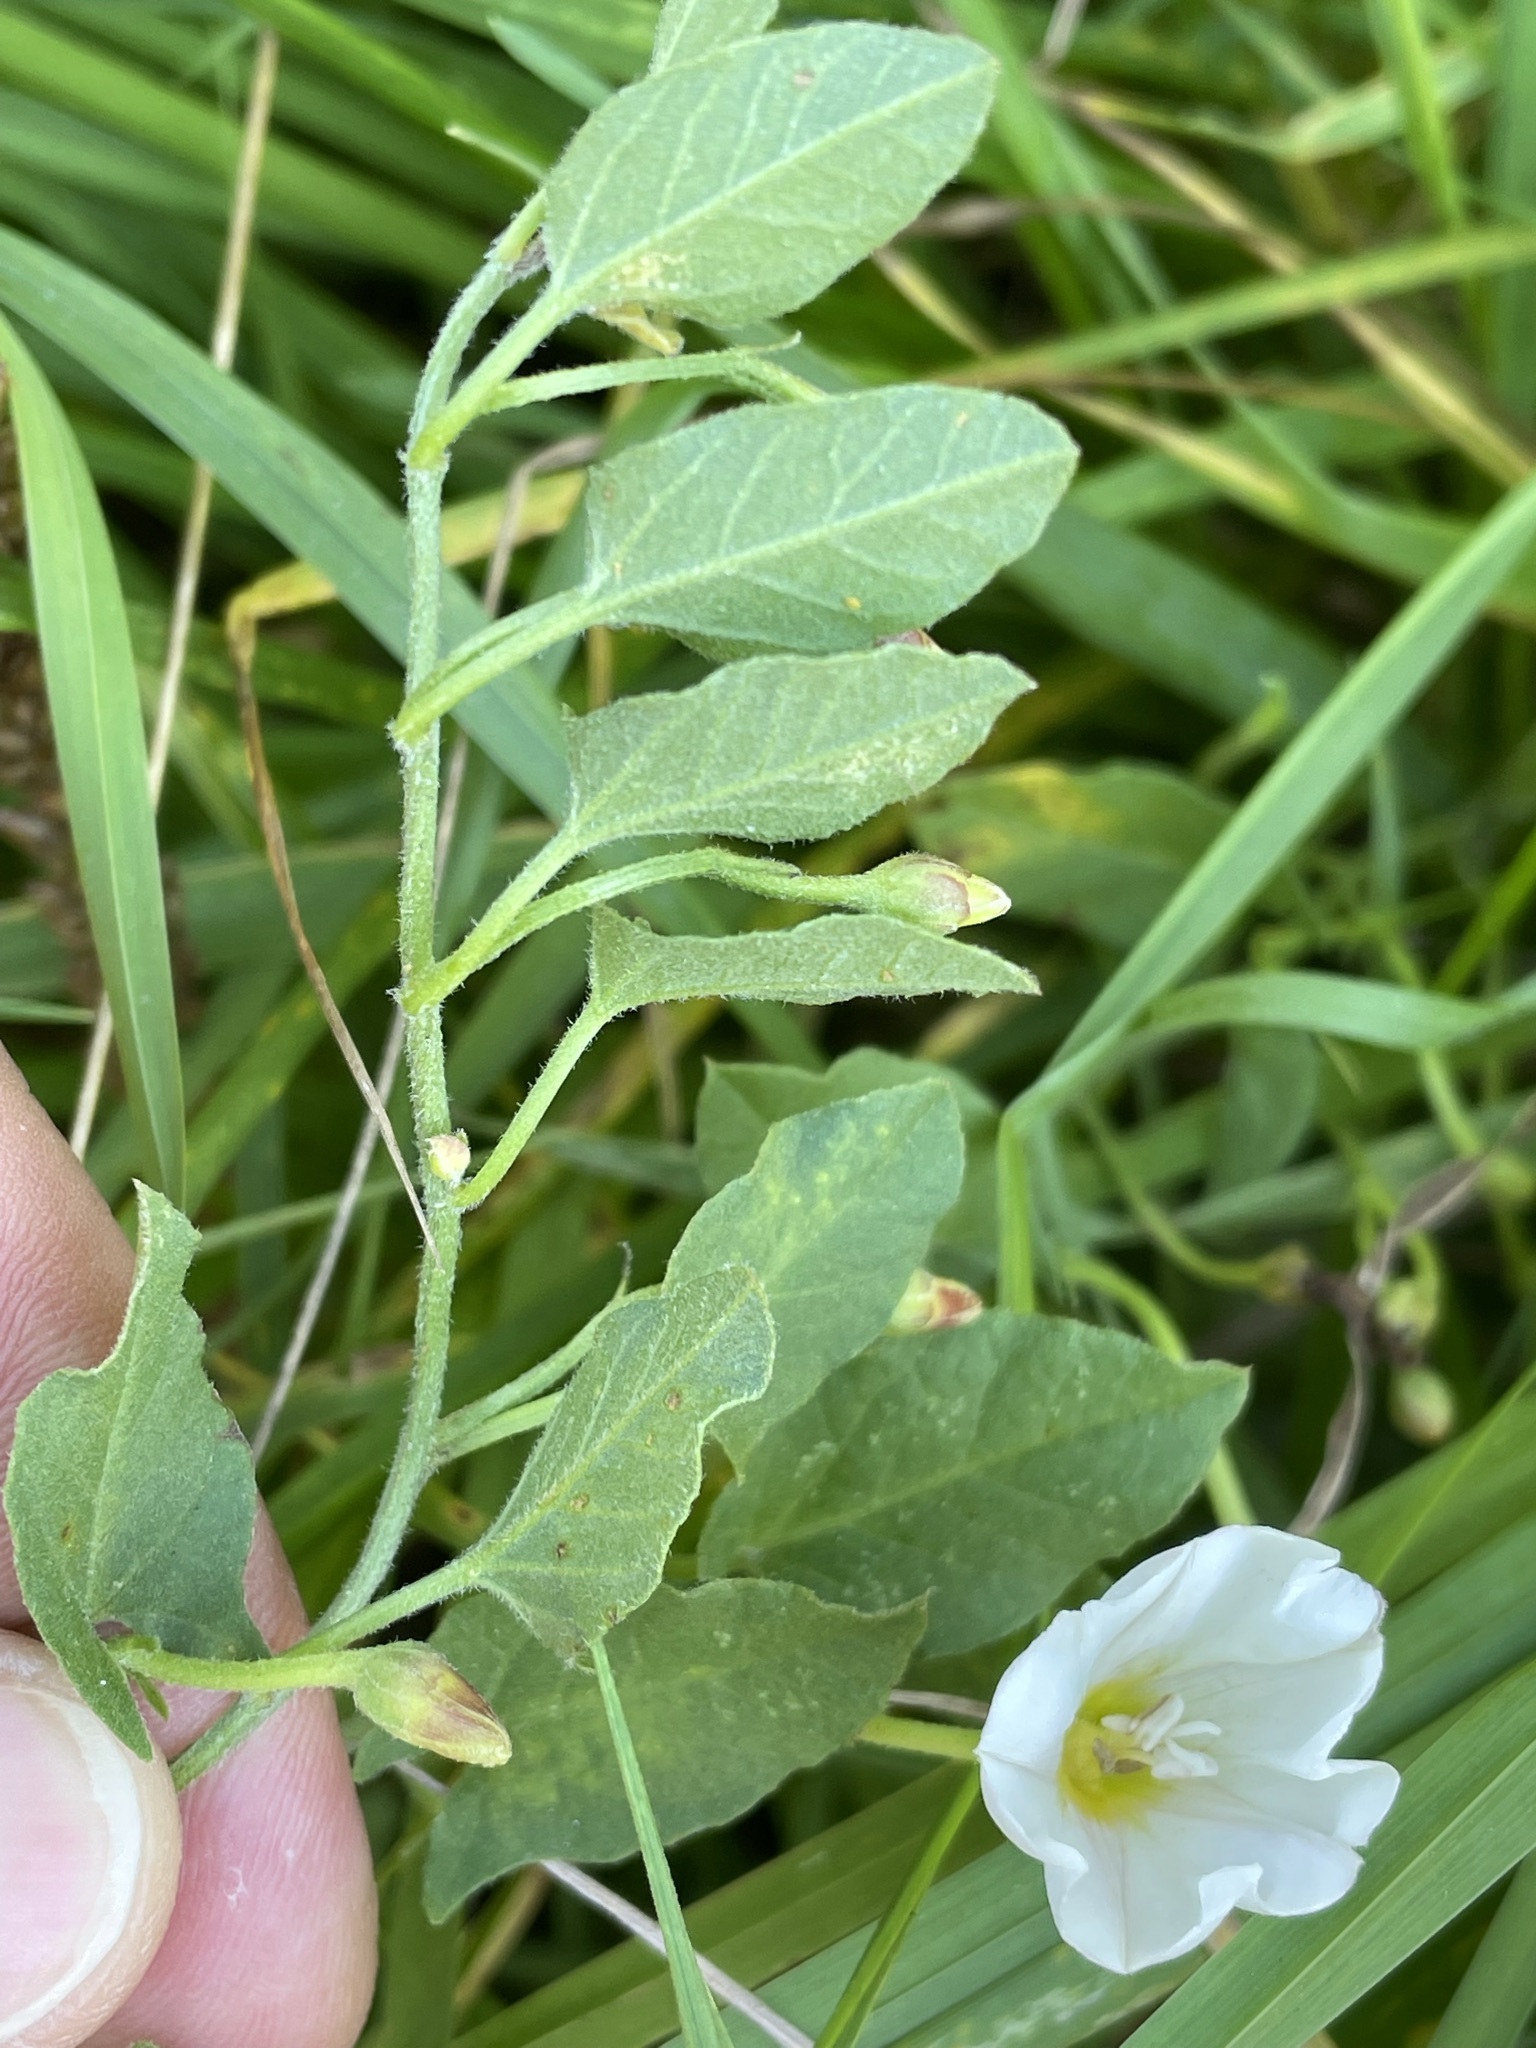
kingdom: Plantae
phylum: Tracheophyta
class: Magnoliopsida
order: Solanales
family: Convolvulaceae
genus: Convolvulus
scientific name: Convolvulus arvensis
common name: Field bindweed
